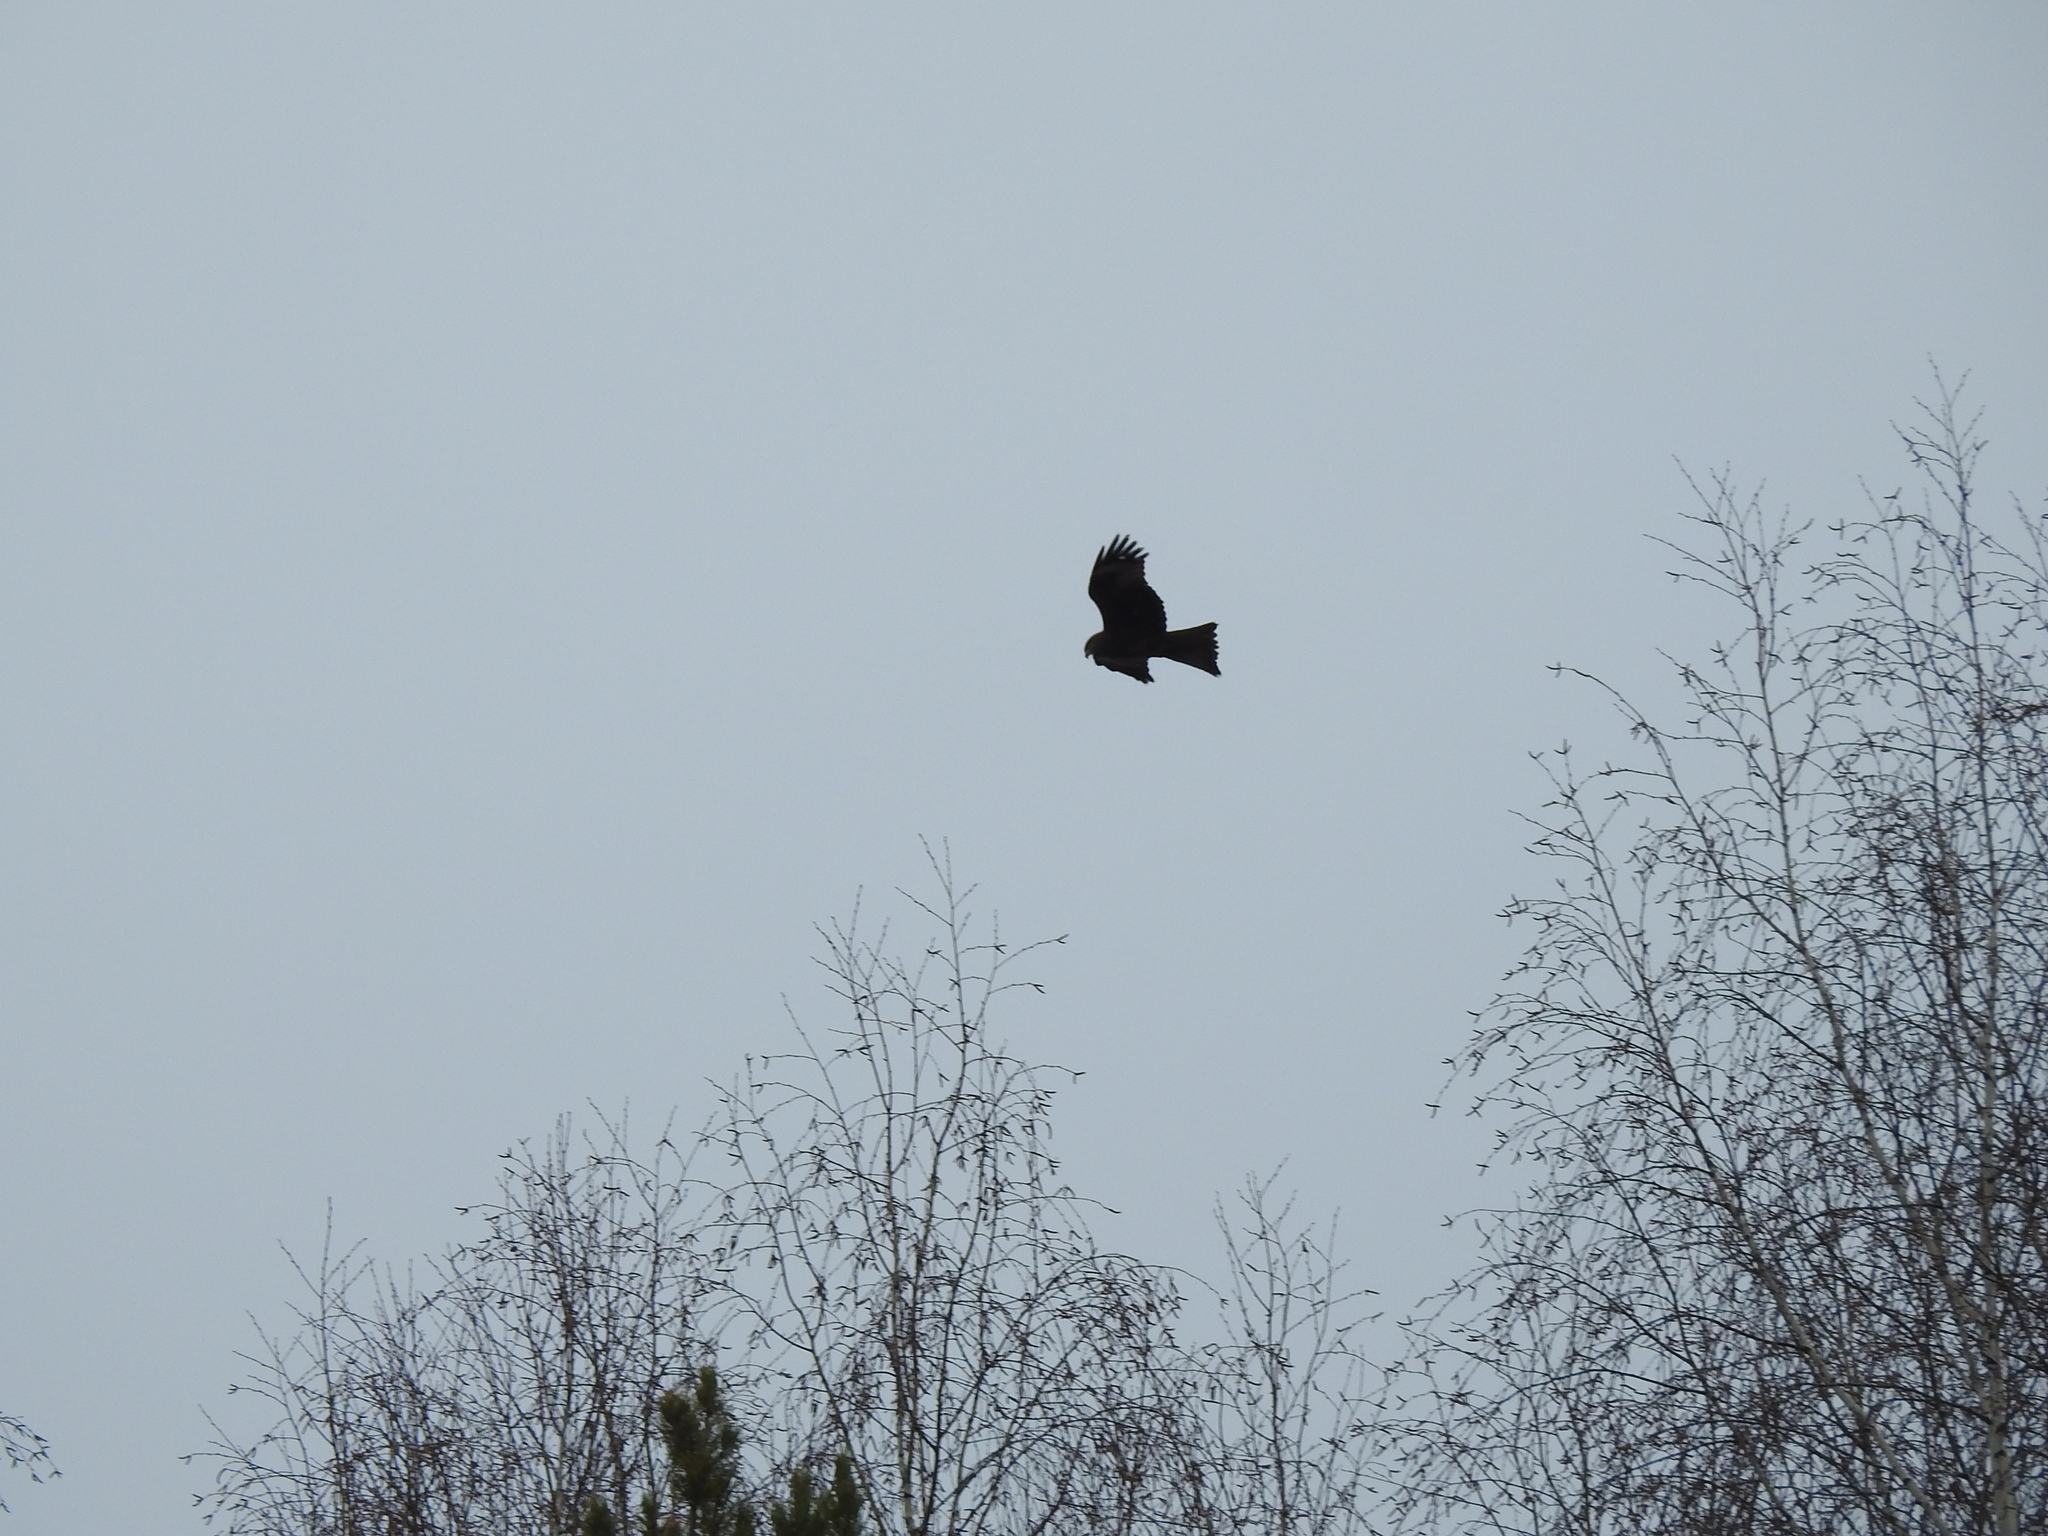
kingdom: Animalia
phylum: Chordata
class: Aves
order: Accipitriformes
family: Accipitridae
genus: Milvus
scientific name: Milvus migrans
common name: Black kite
